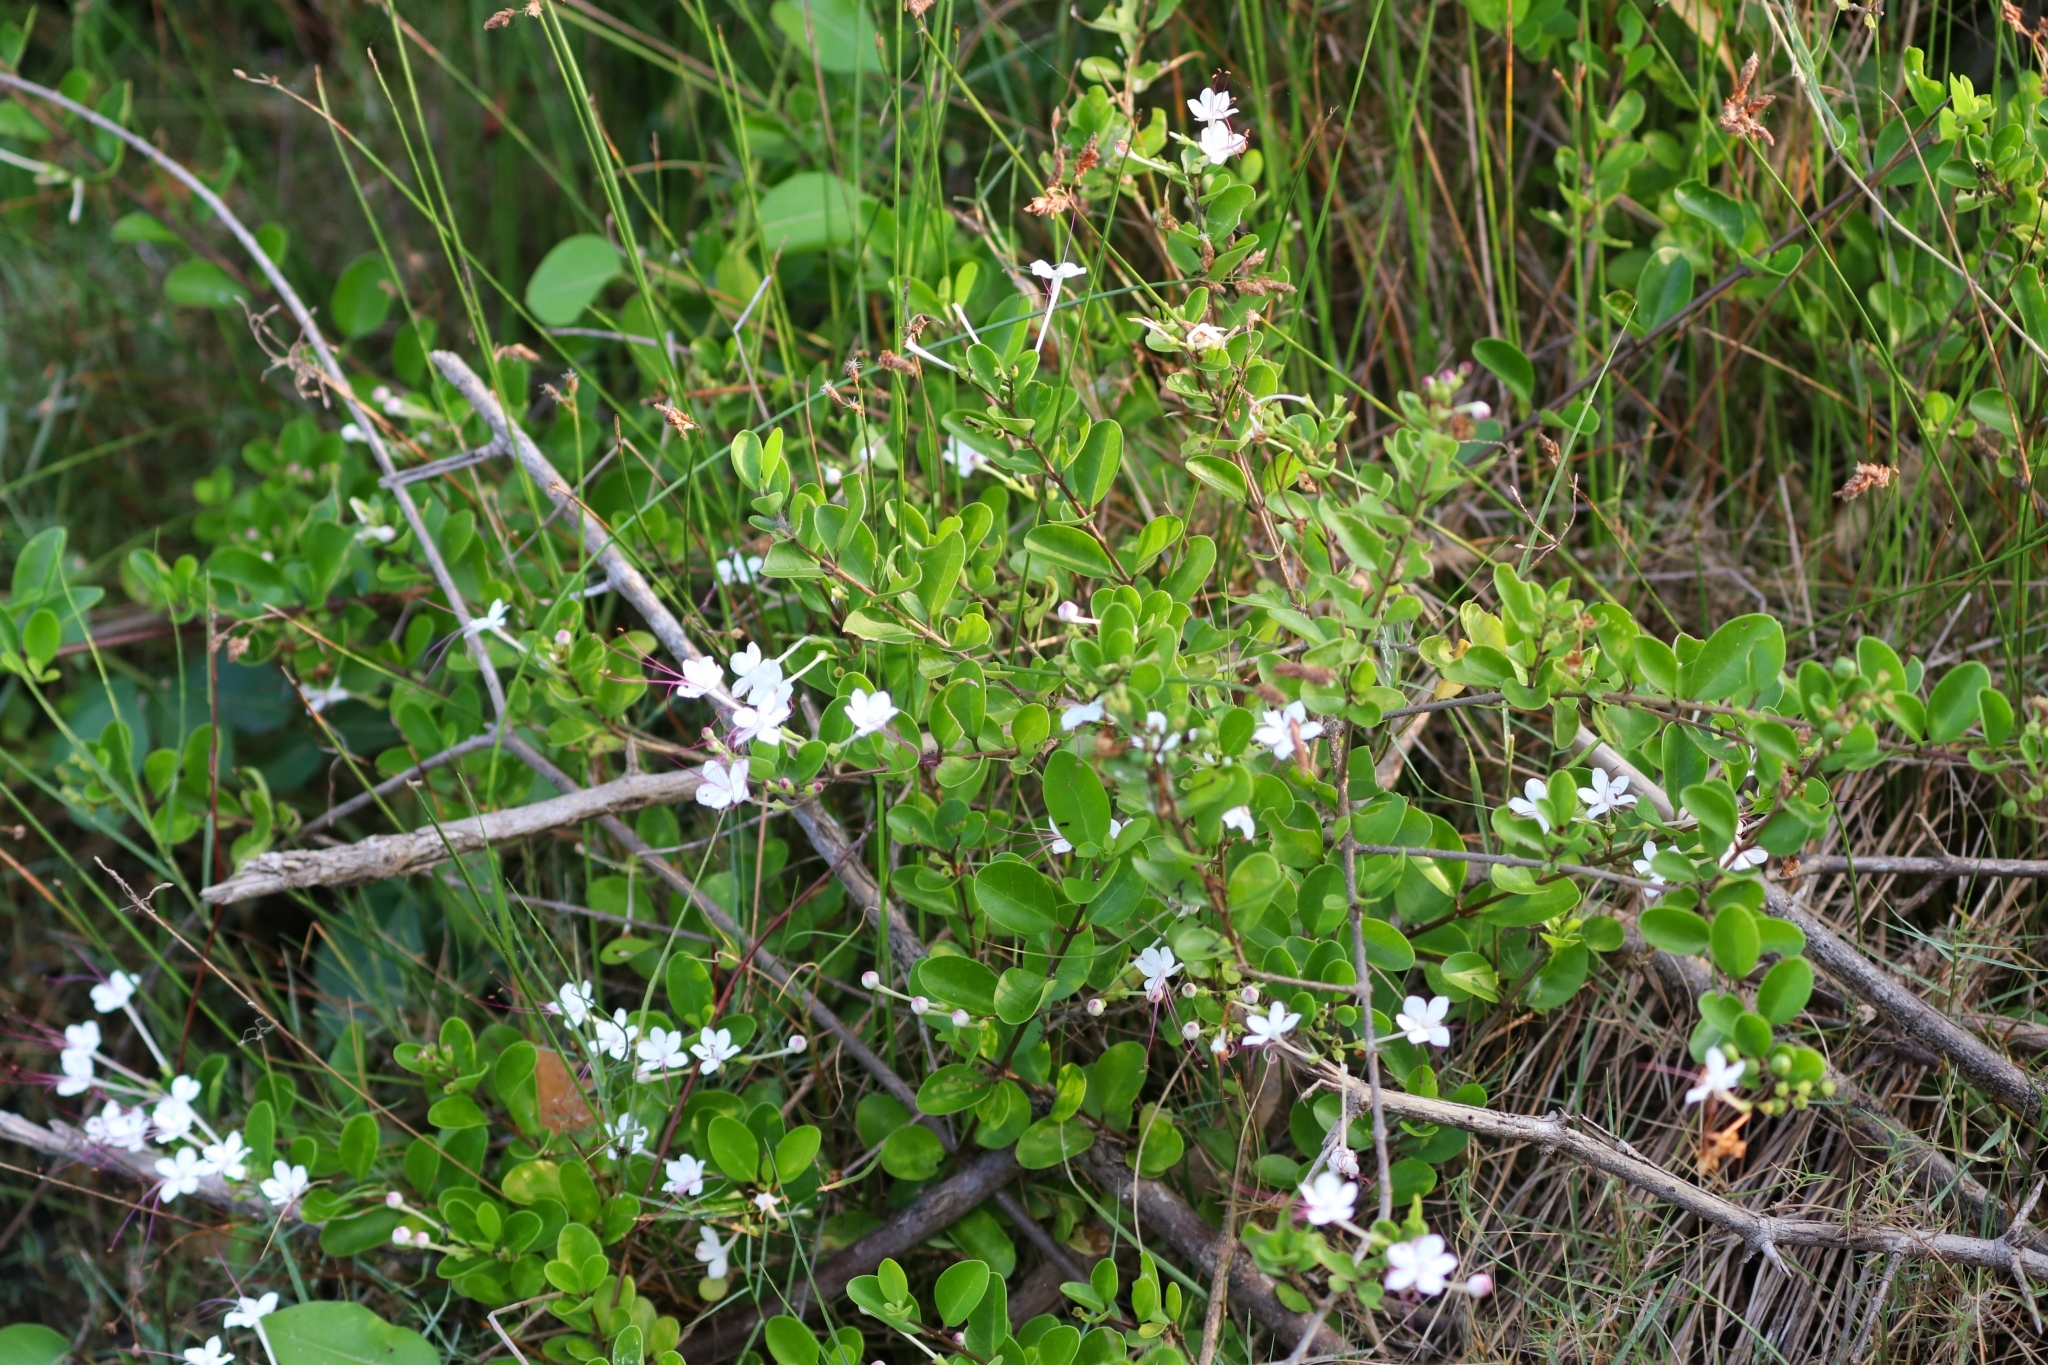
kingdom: Plantae
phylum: Tracheophyta
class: Magnoliopsida
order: Lamiales
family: Lamiaceae
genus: Volkameria
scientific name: Volkameria inermis
